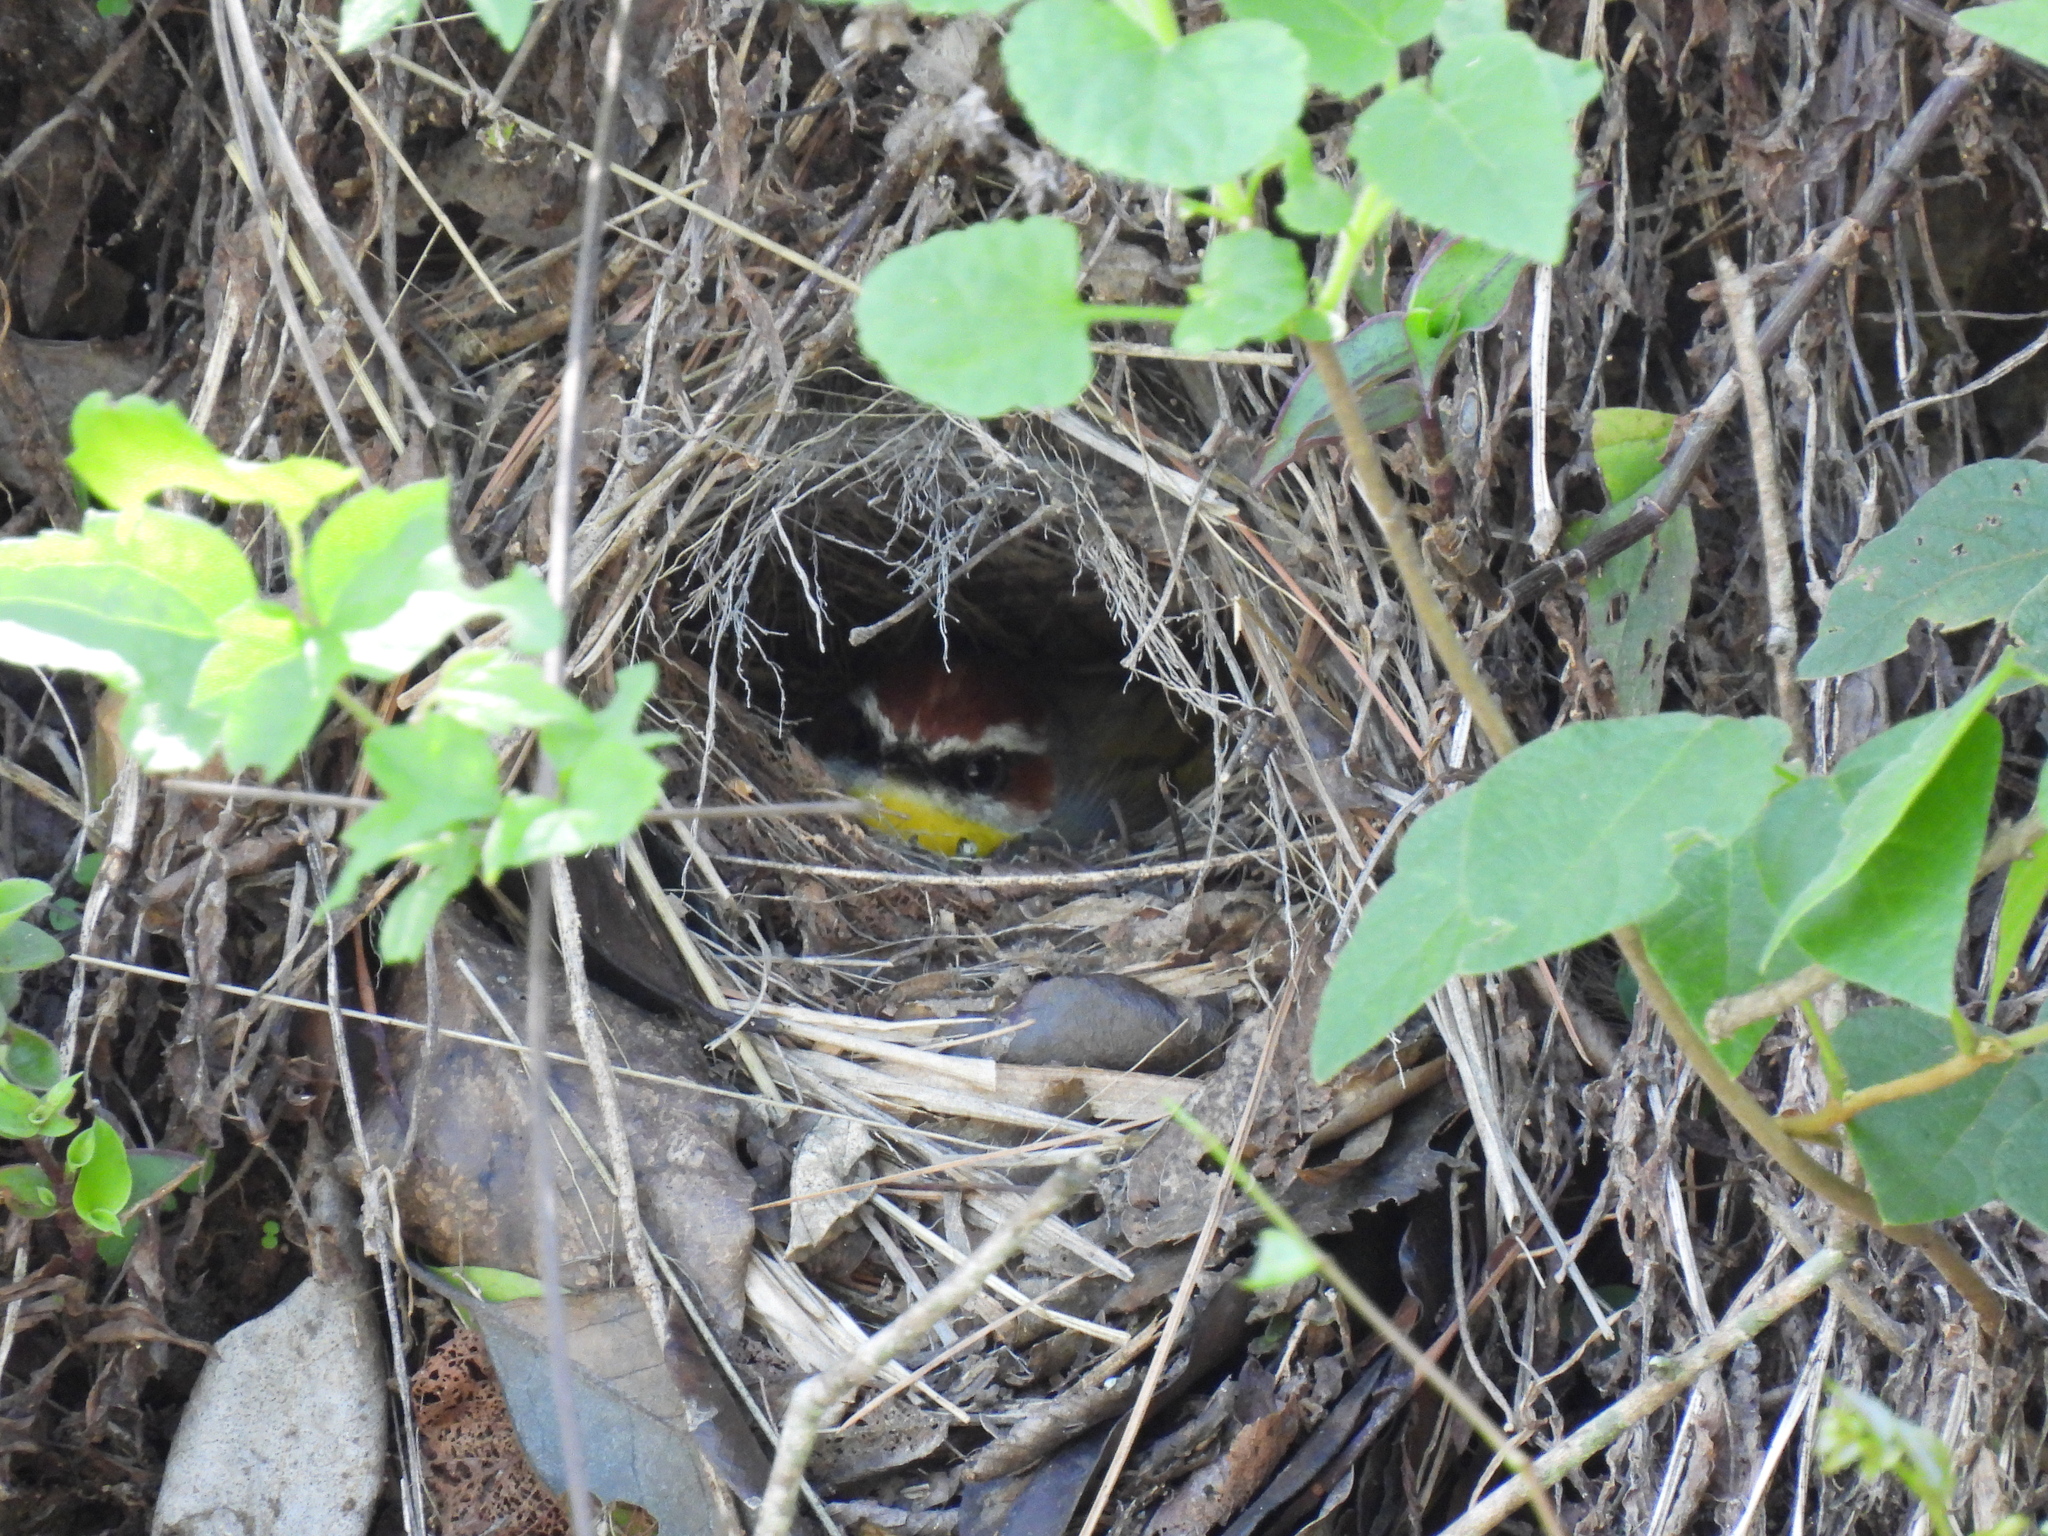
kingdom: Animalia
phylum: Chordata
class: Aves
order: Passeriformes
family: Parulidae
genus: Basileuterus
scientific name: Basileuterus rufifrons
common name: Rufous-capped warbler
